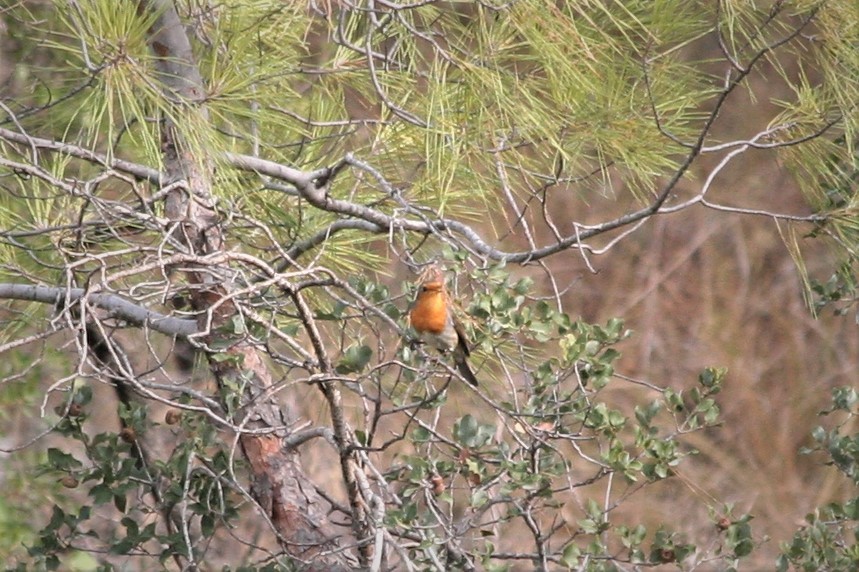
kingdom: Animalia
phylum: Chordata
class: Aves
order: Passeriformes
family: Muscicapidae
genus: Erithacus
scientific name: Erithacus rubecula
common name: European robin
